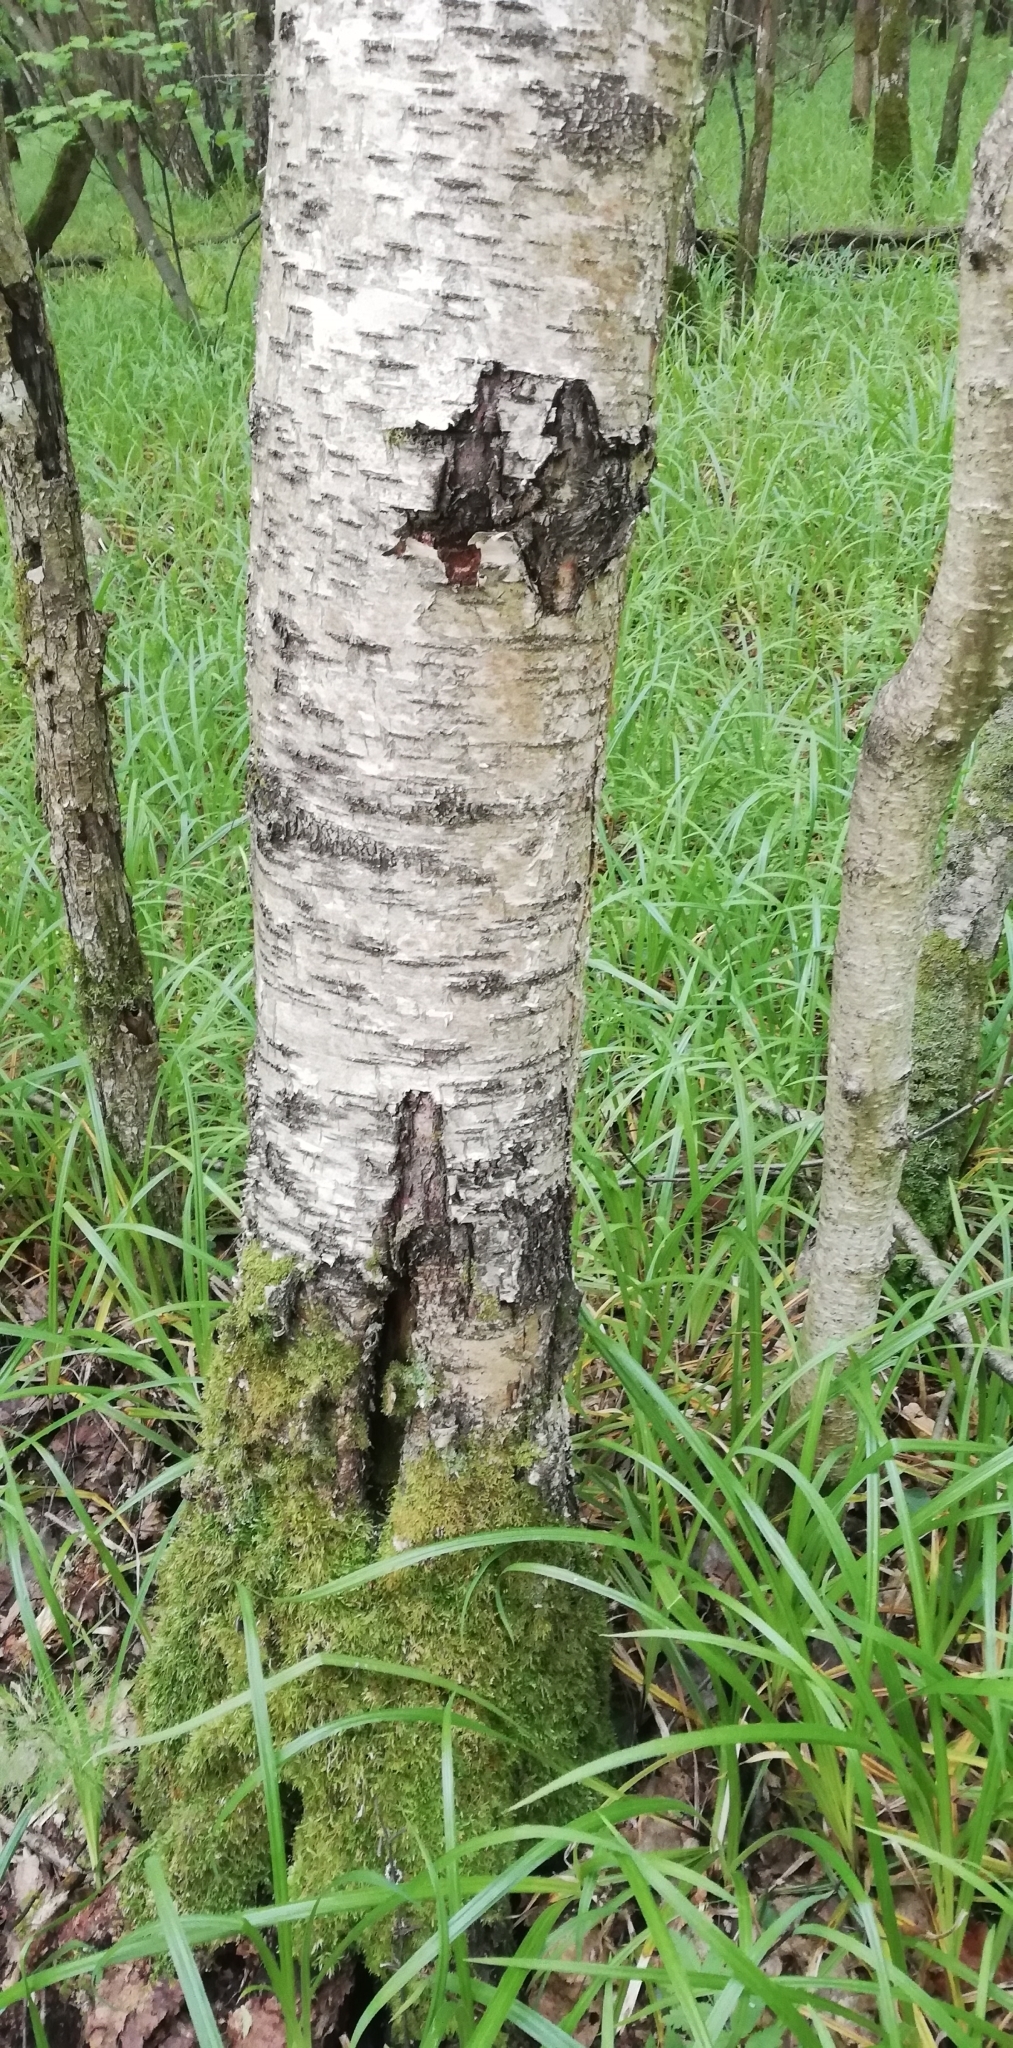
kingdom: Plantae
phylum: Tracheophyta
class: Magnoliopsida
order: Fagales
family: Betulaceae
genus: Betula
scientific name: Betula pubescens
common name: Downy birch
